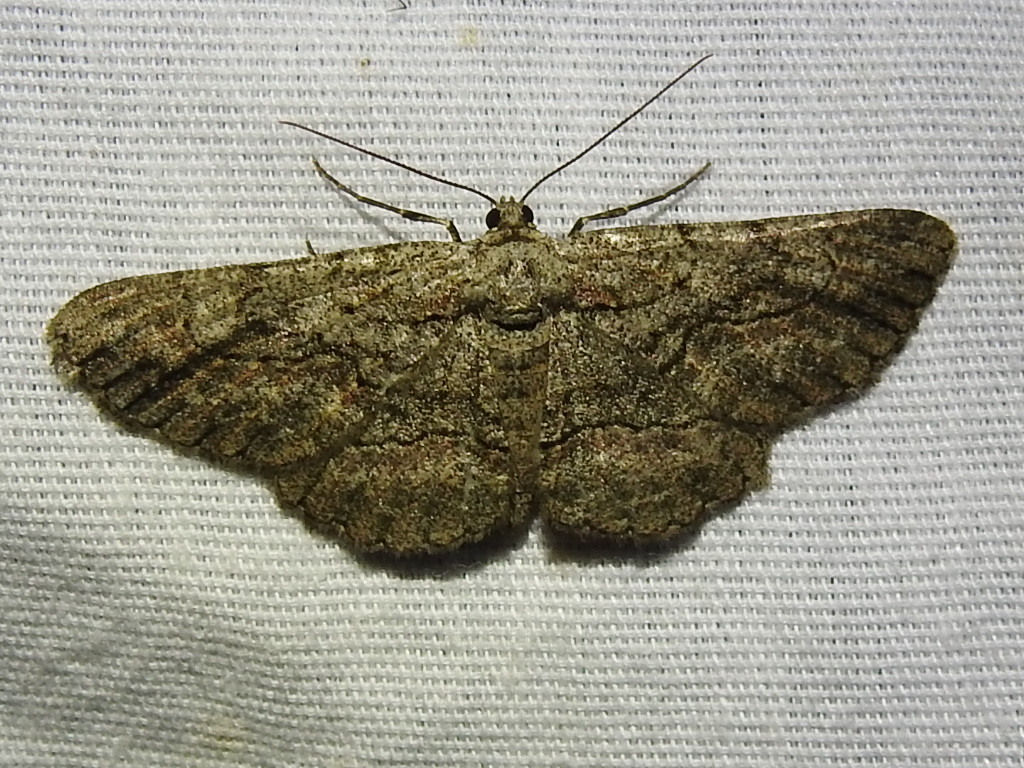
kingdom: Animalia
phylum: Arthropoda
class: Insecta
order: Lepidoptera
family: Geometridae
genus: Iridopsis
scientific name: Iridopsis defectaria
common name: Brown-shaded gray
